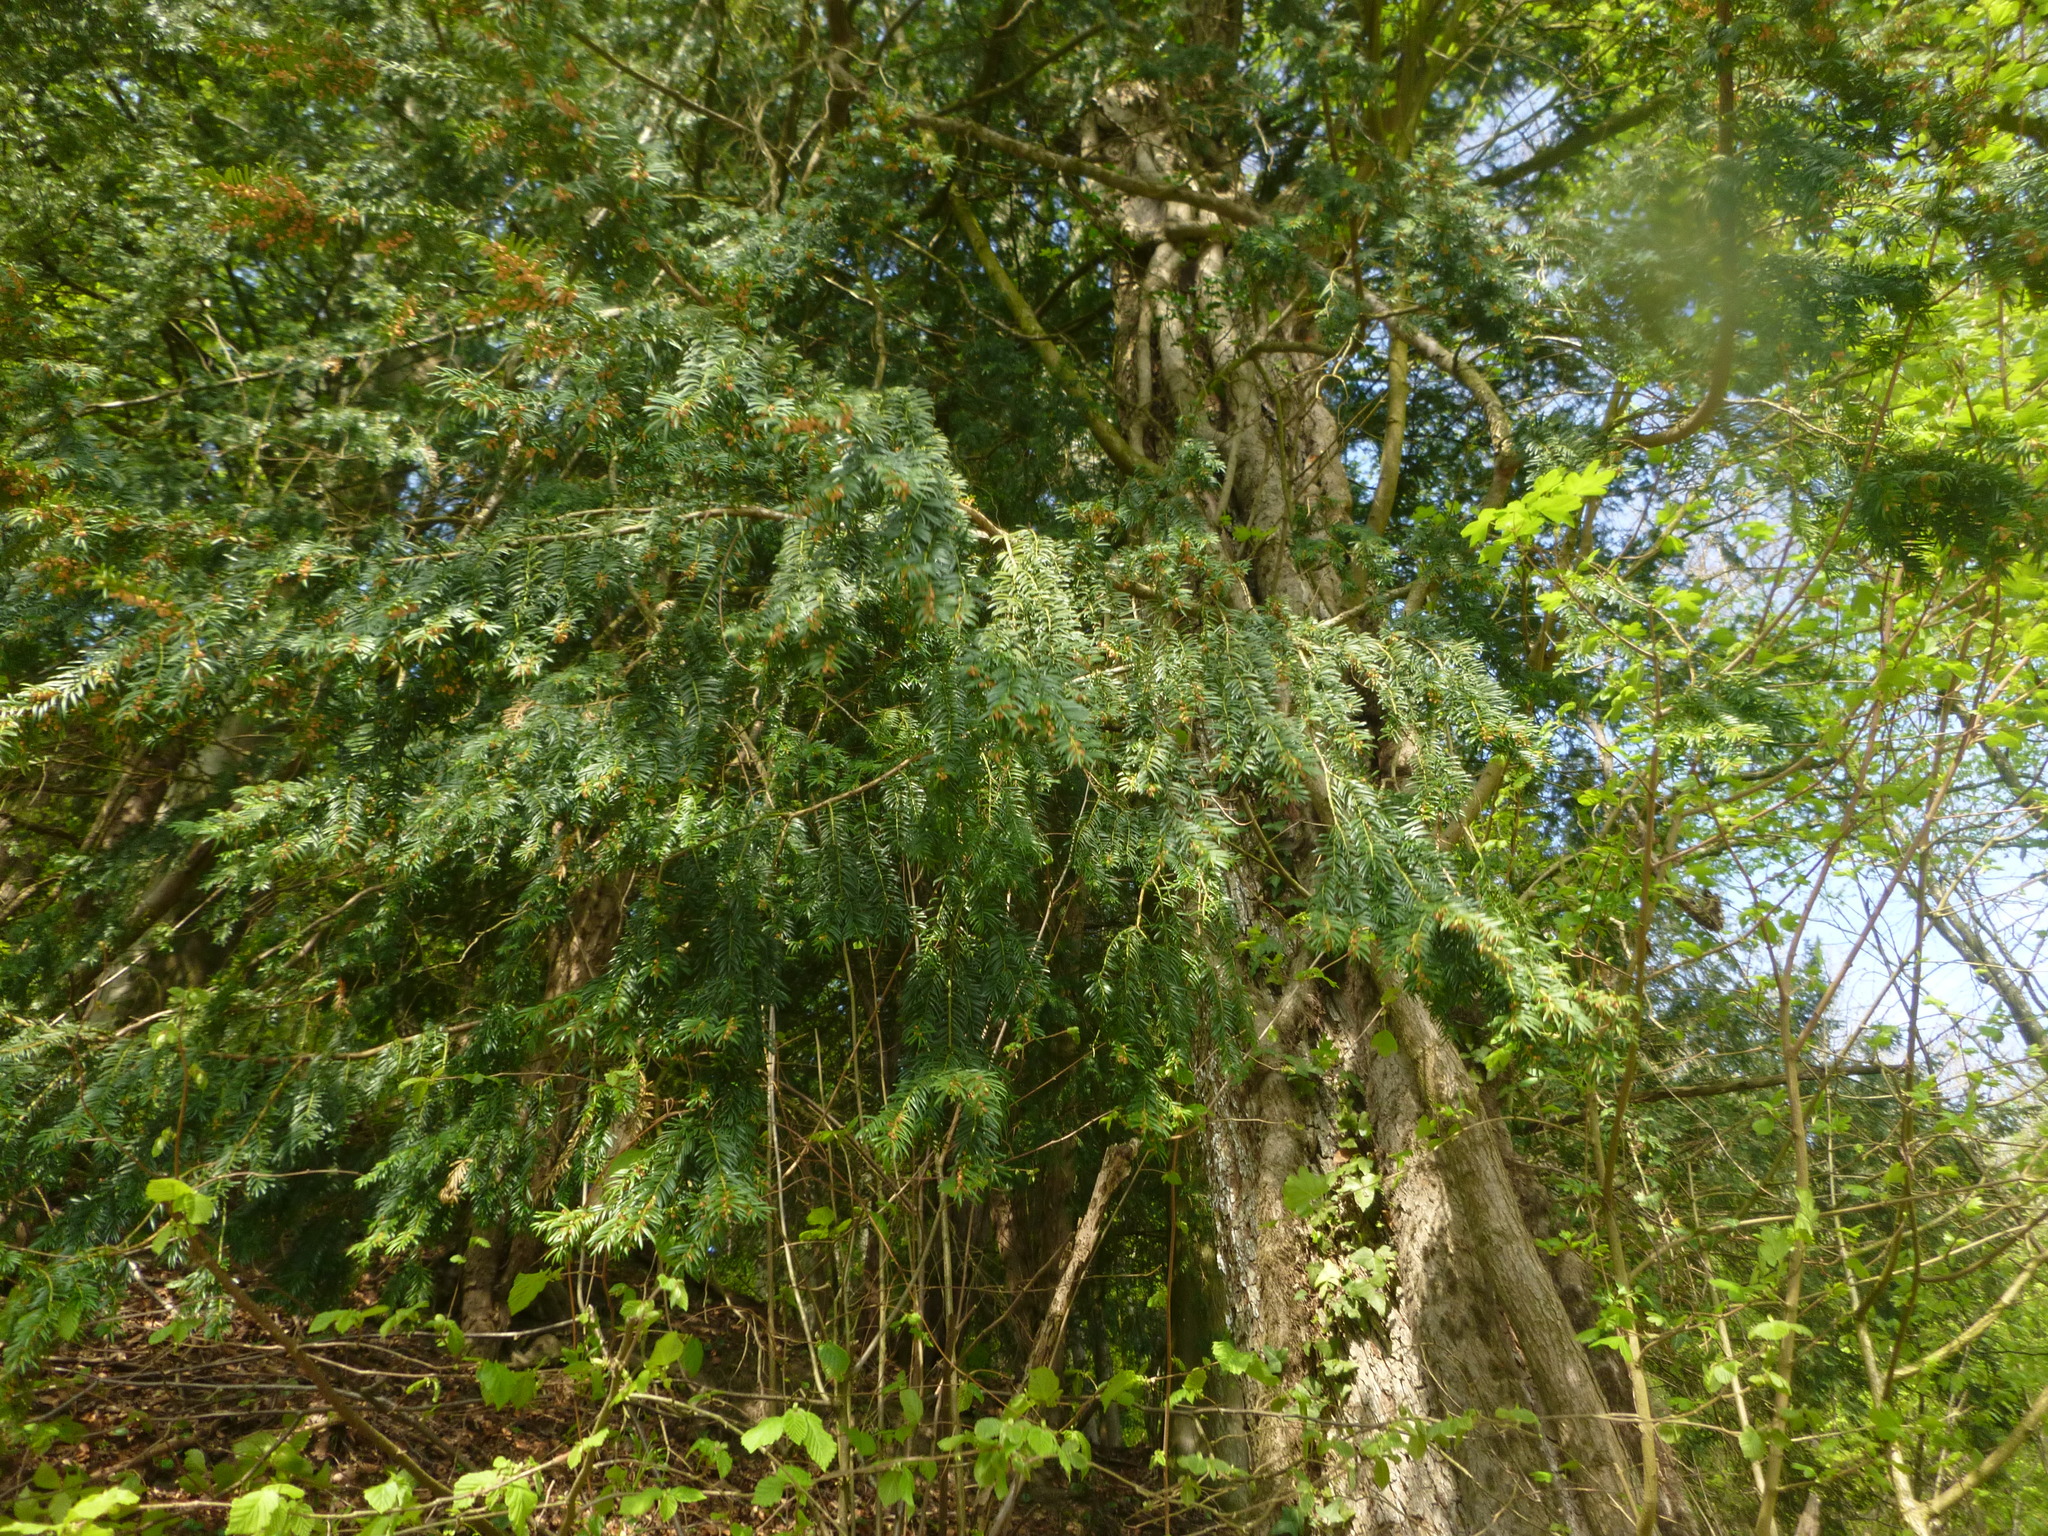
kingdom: Plantae
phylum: Tracheophyta
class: Pinopsida
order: Pinales
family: Taxaceae
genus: Taxus
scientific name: Taxus baccata
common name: Yew
